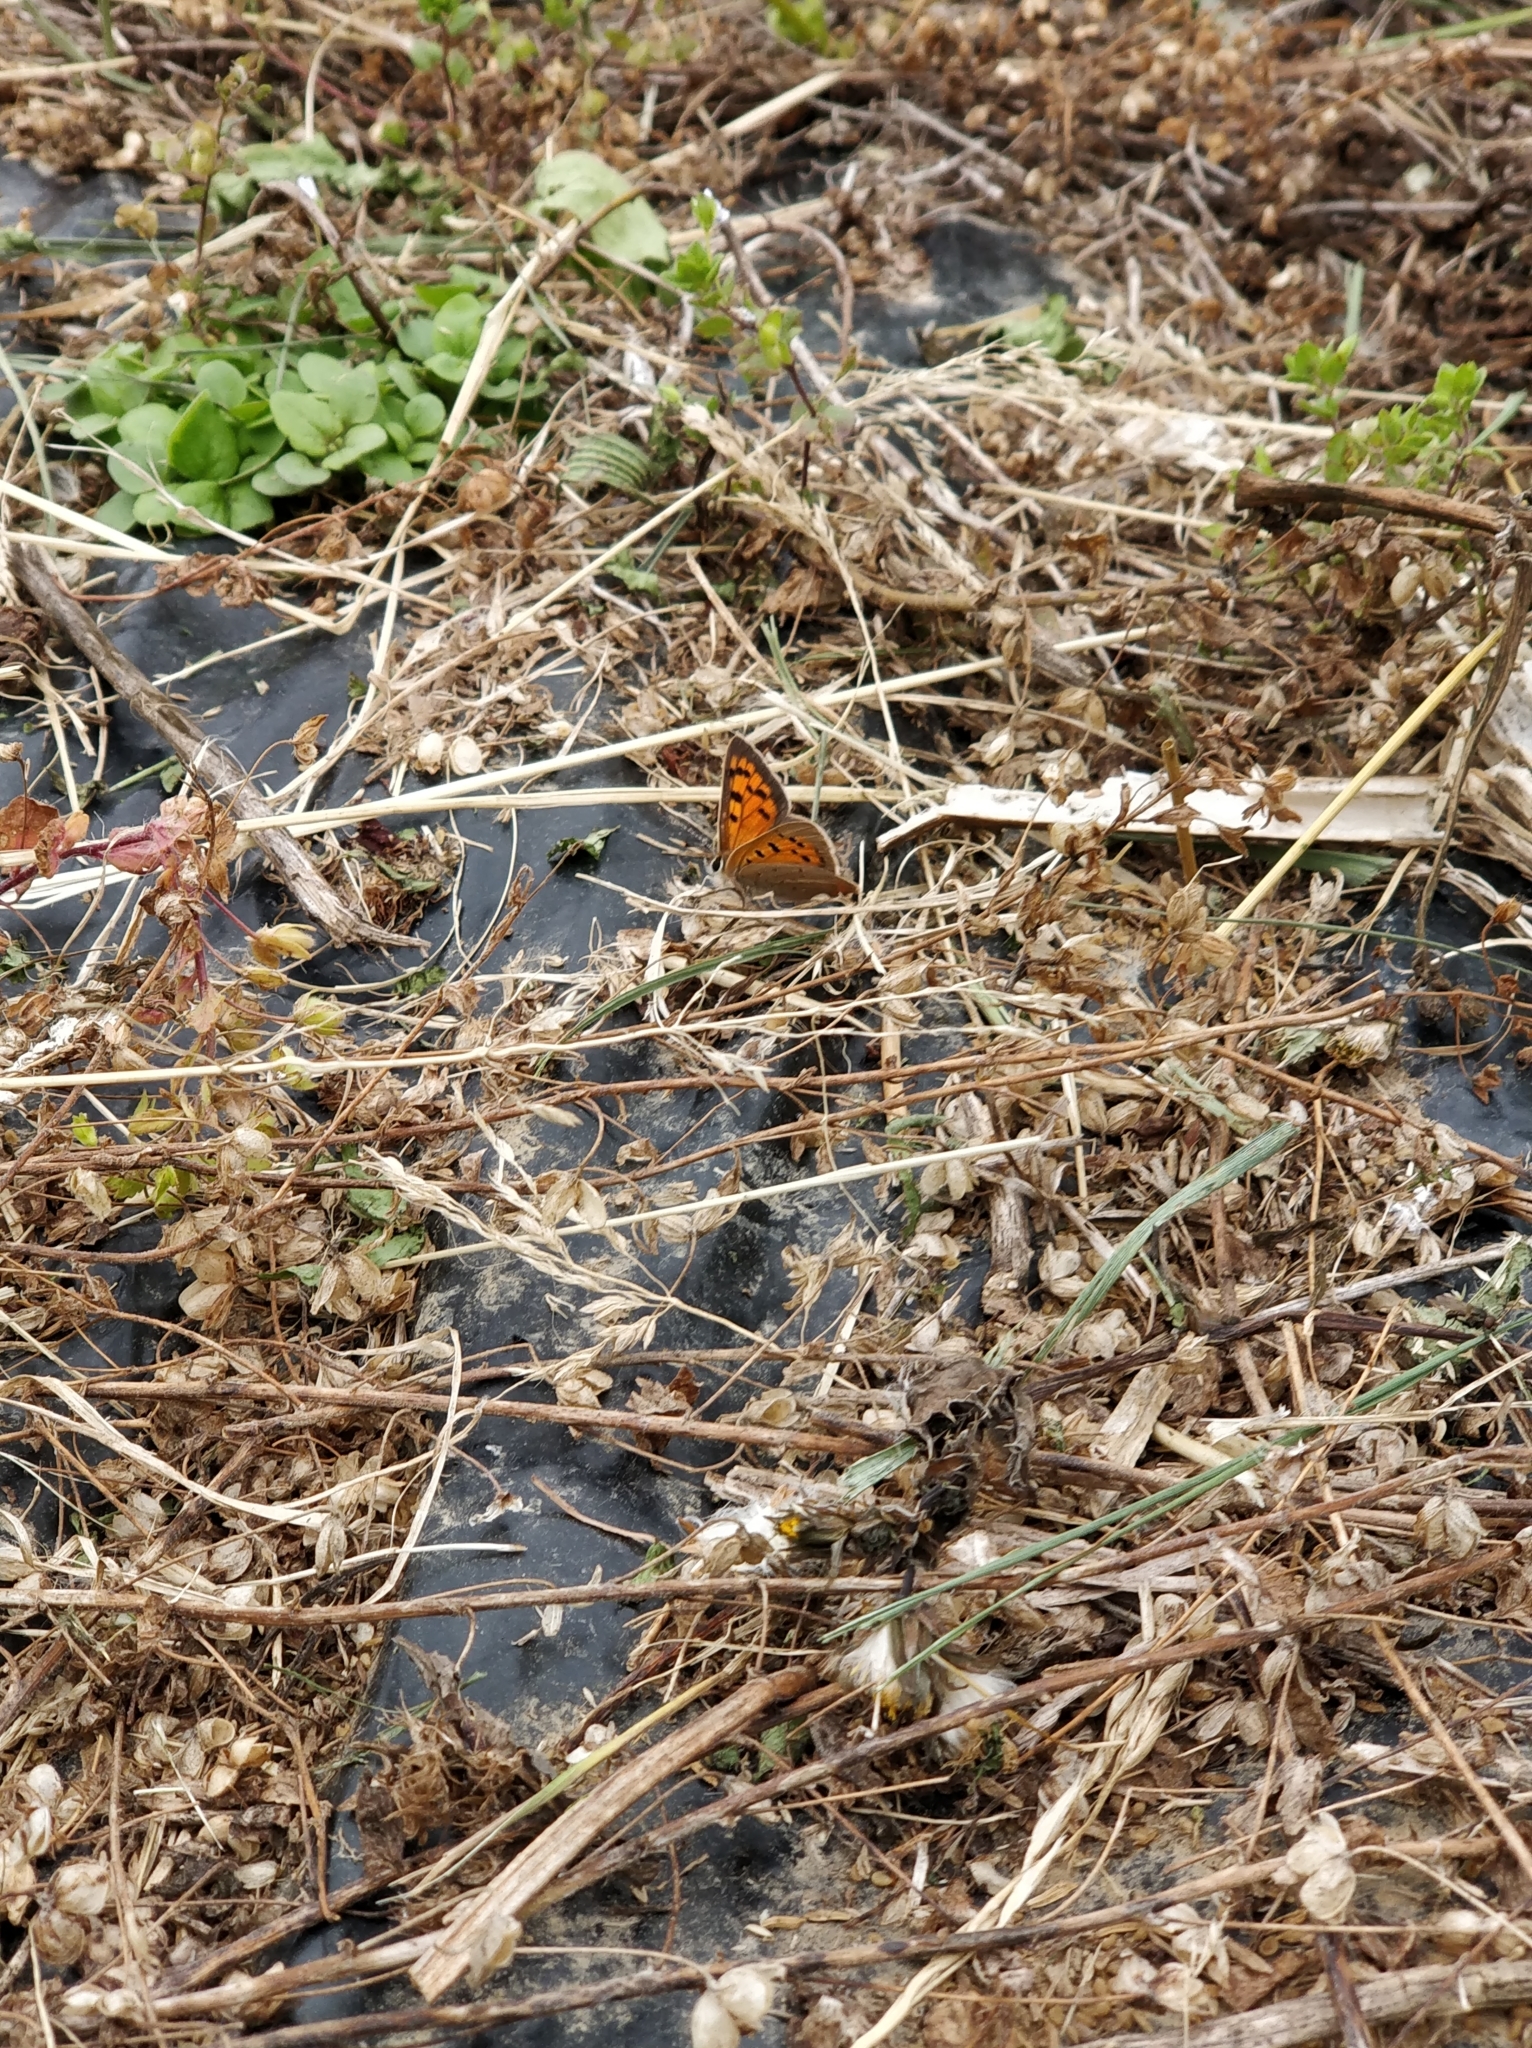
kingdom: Animalia
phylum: Arthropoda
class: Insecta
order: Lepidoptera
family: Lycaenidae
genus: Lycaena
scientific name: Lycaena phlaeas
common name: Small copper
